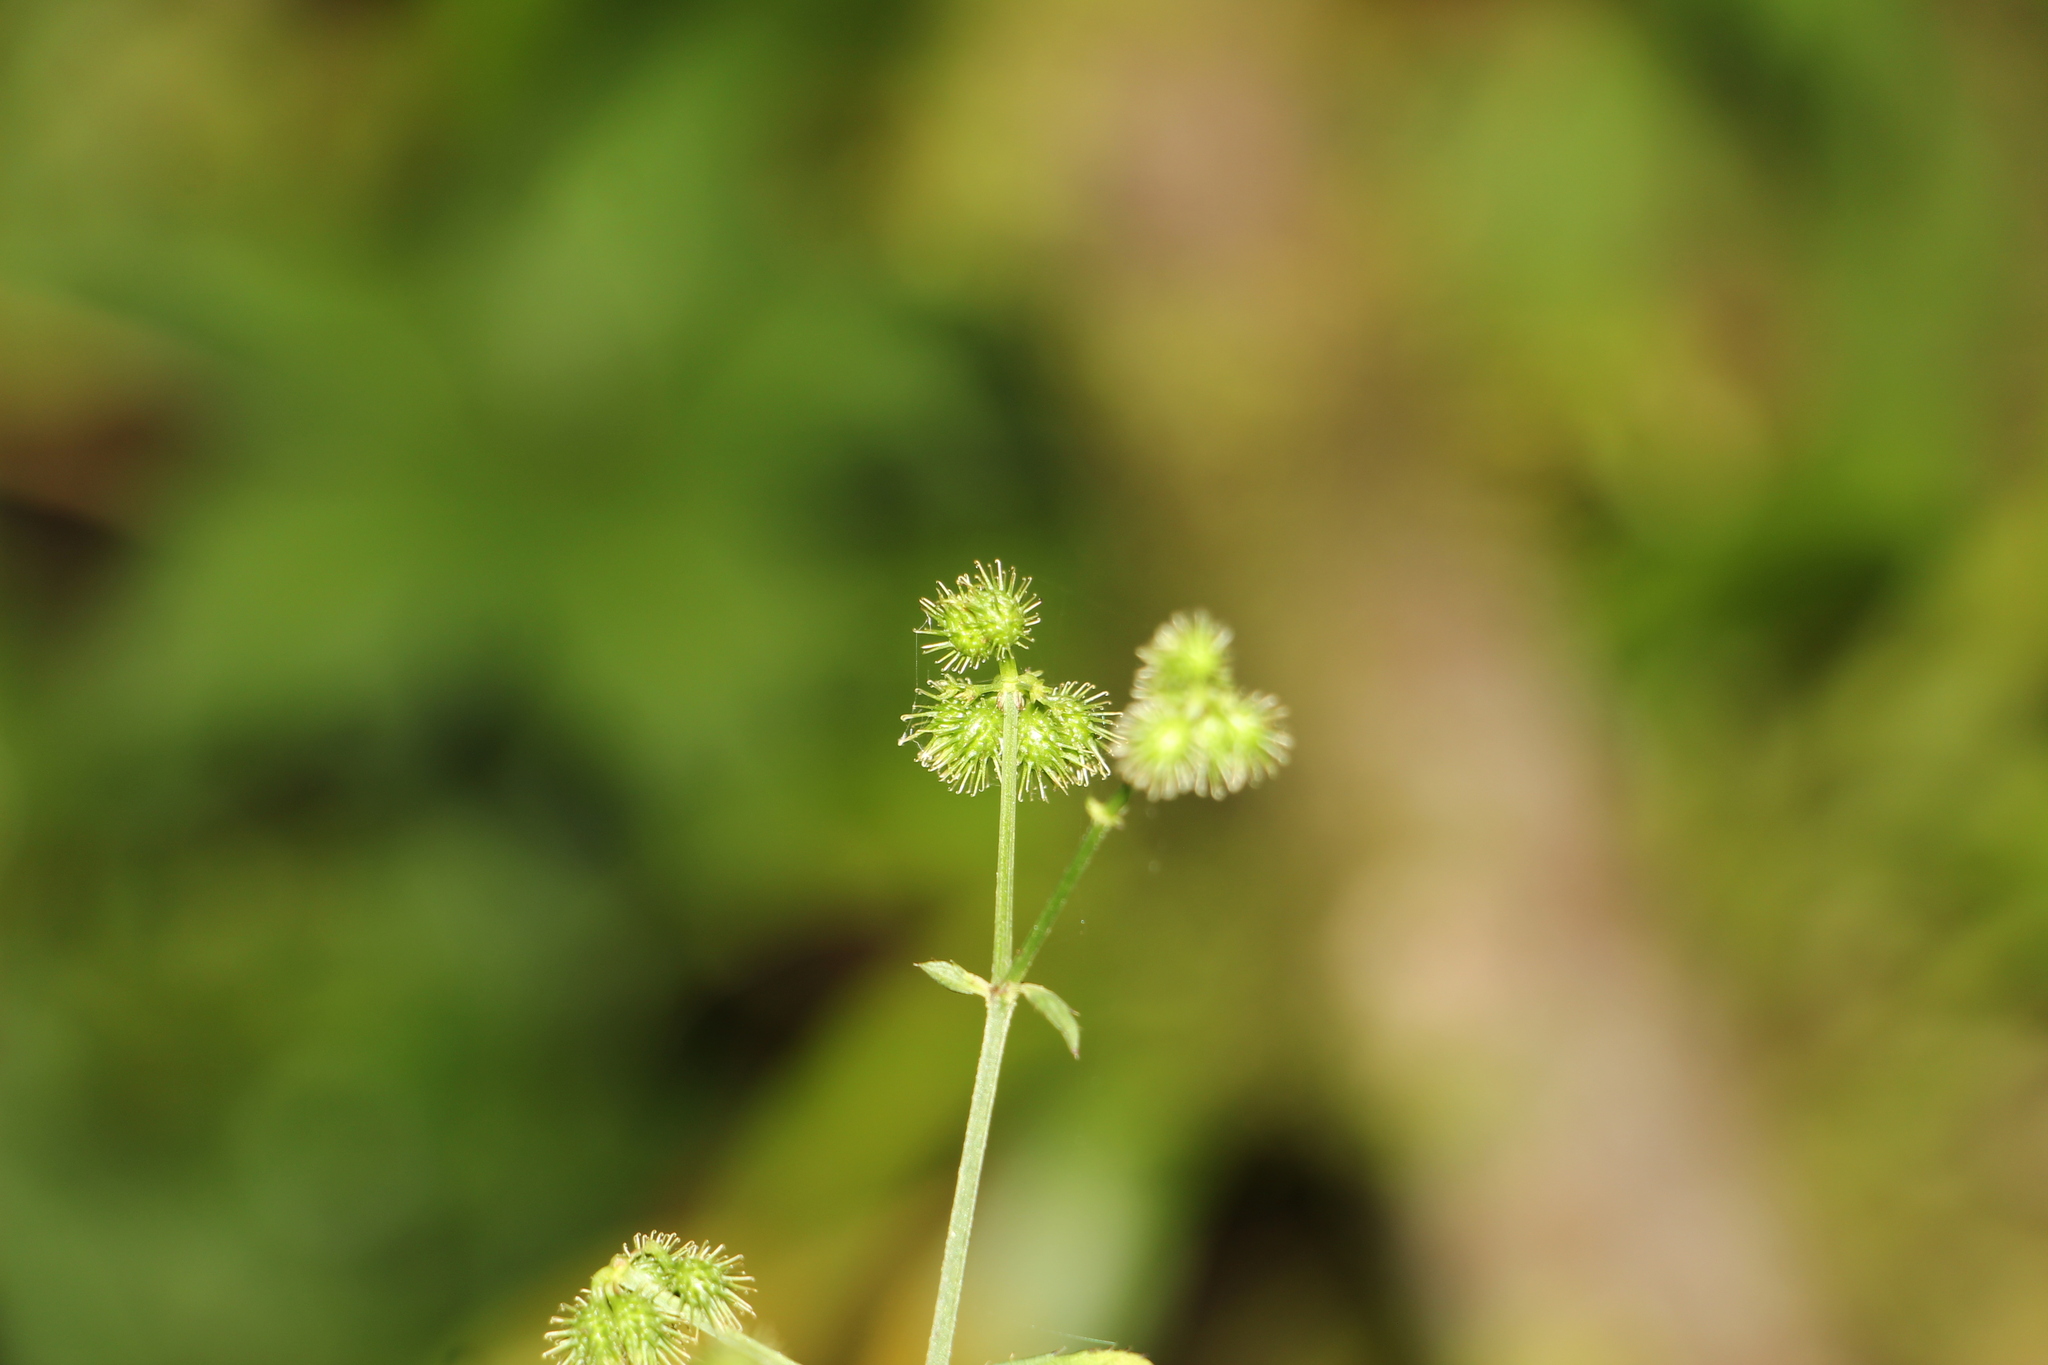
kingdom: Plantae
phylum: Tracheophyta
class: Magnoliopsida
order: Apiales
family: Apiaceae
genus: Sanicula
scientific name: Sanicula liberta
